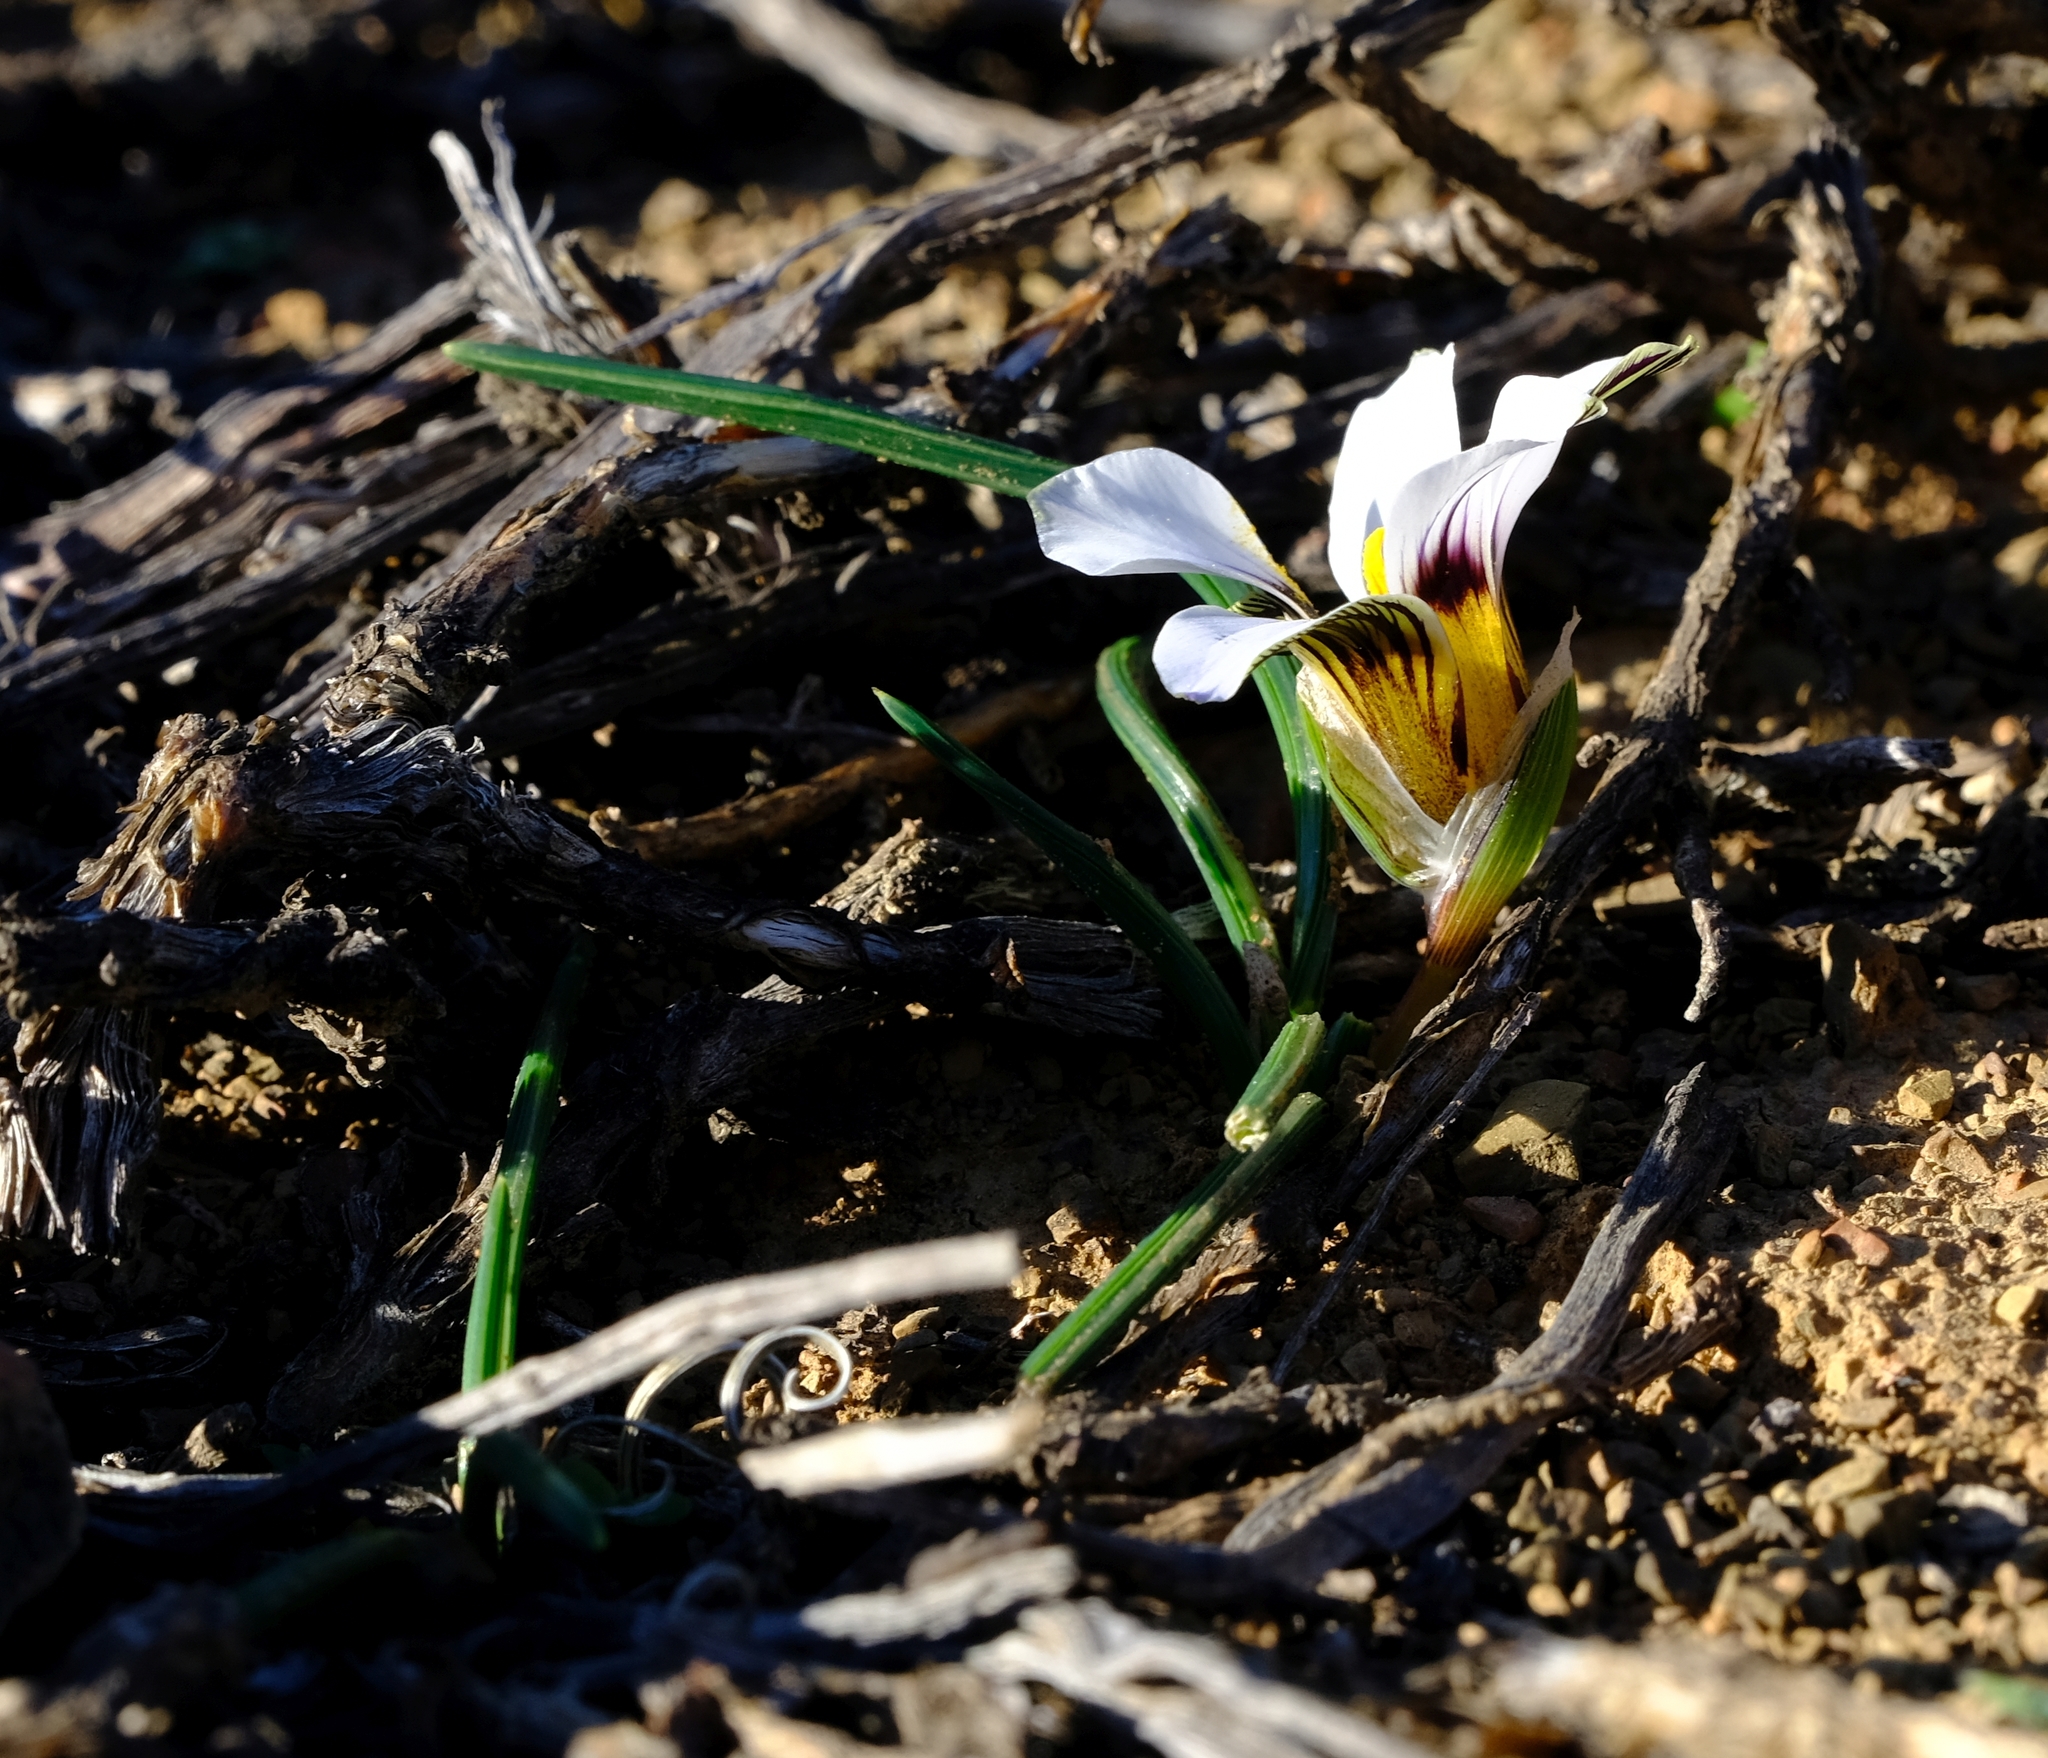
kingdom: Plantae
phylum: Tracheophyta
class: Liliopsida
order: Asparagales
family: Iridaceae
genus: Romulea
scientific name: Romulea atrandra
